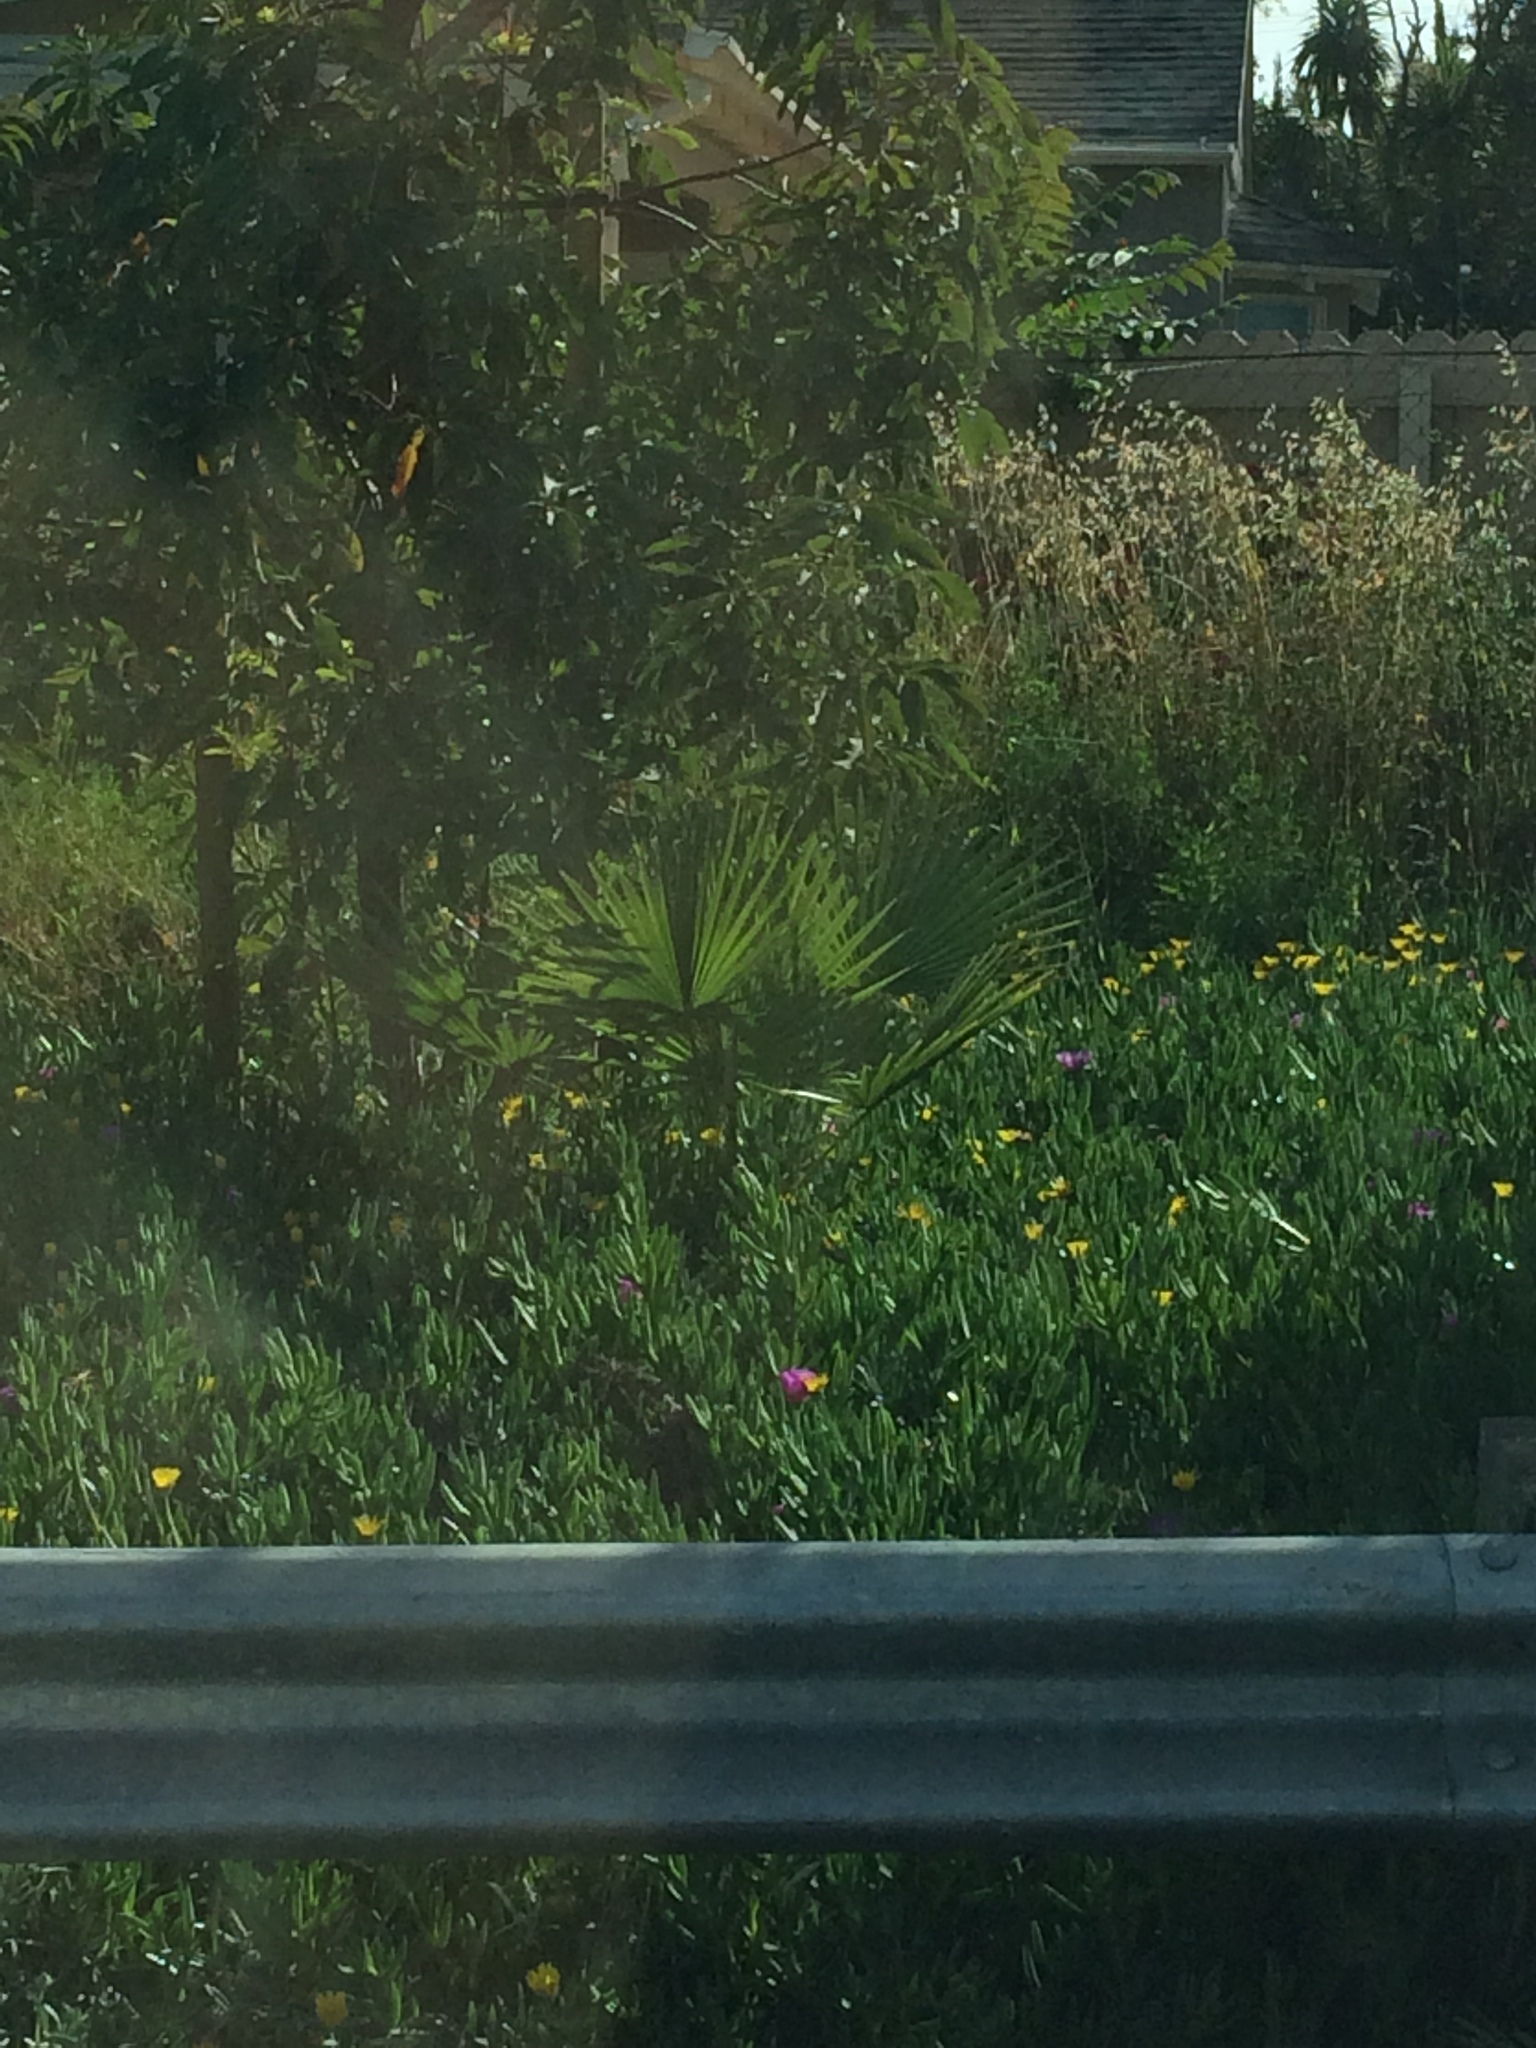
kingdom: Plantae
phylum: Tracheophyta
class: Liliopsida
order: Arecales
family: Arecaceae
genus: Washingtonia
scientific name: Washingtonia robusta
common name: Mexican fan palm
